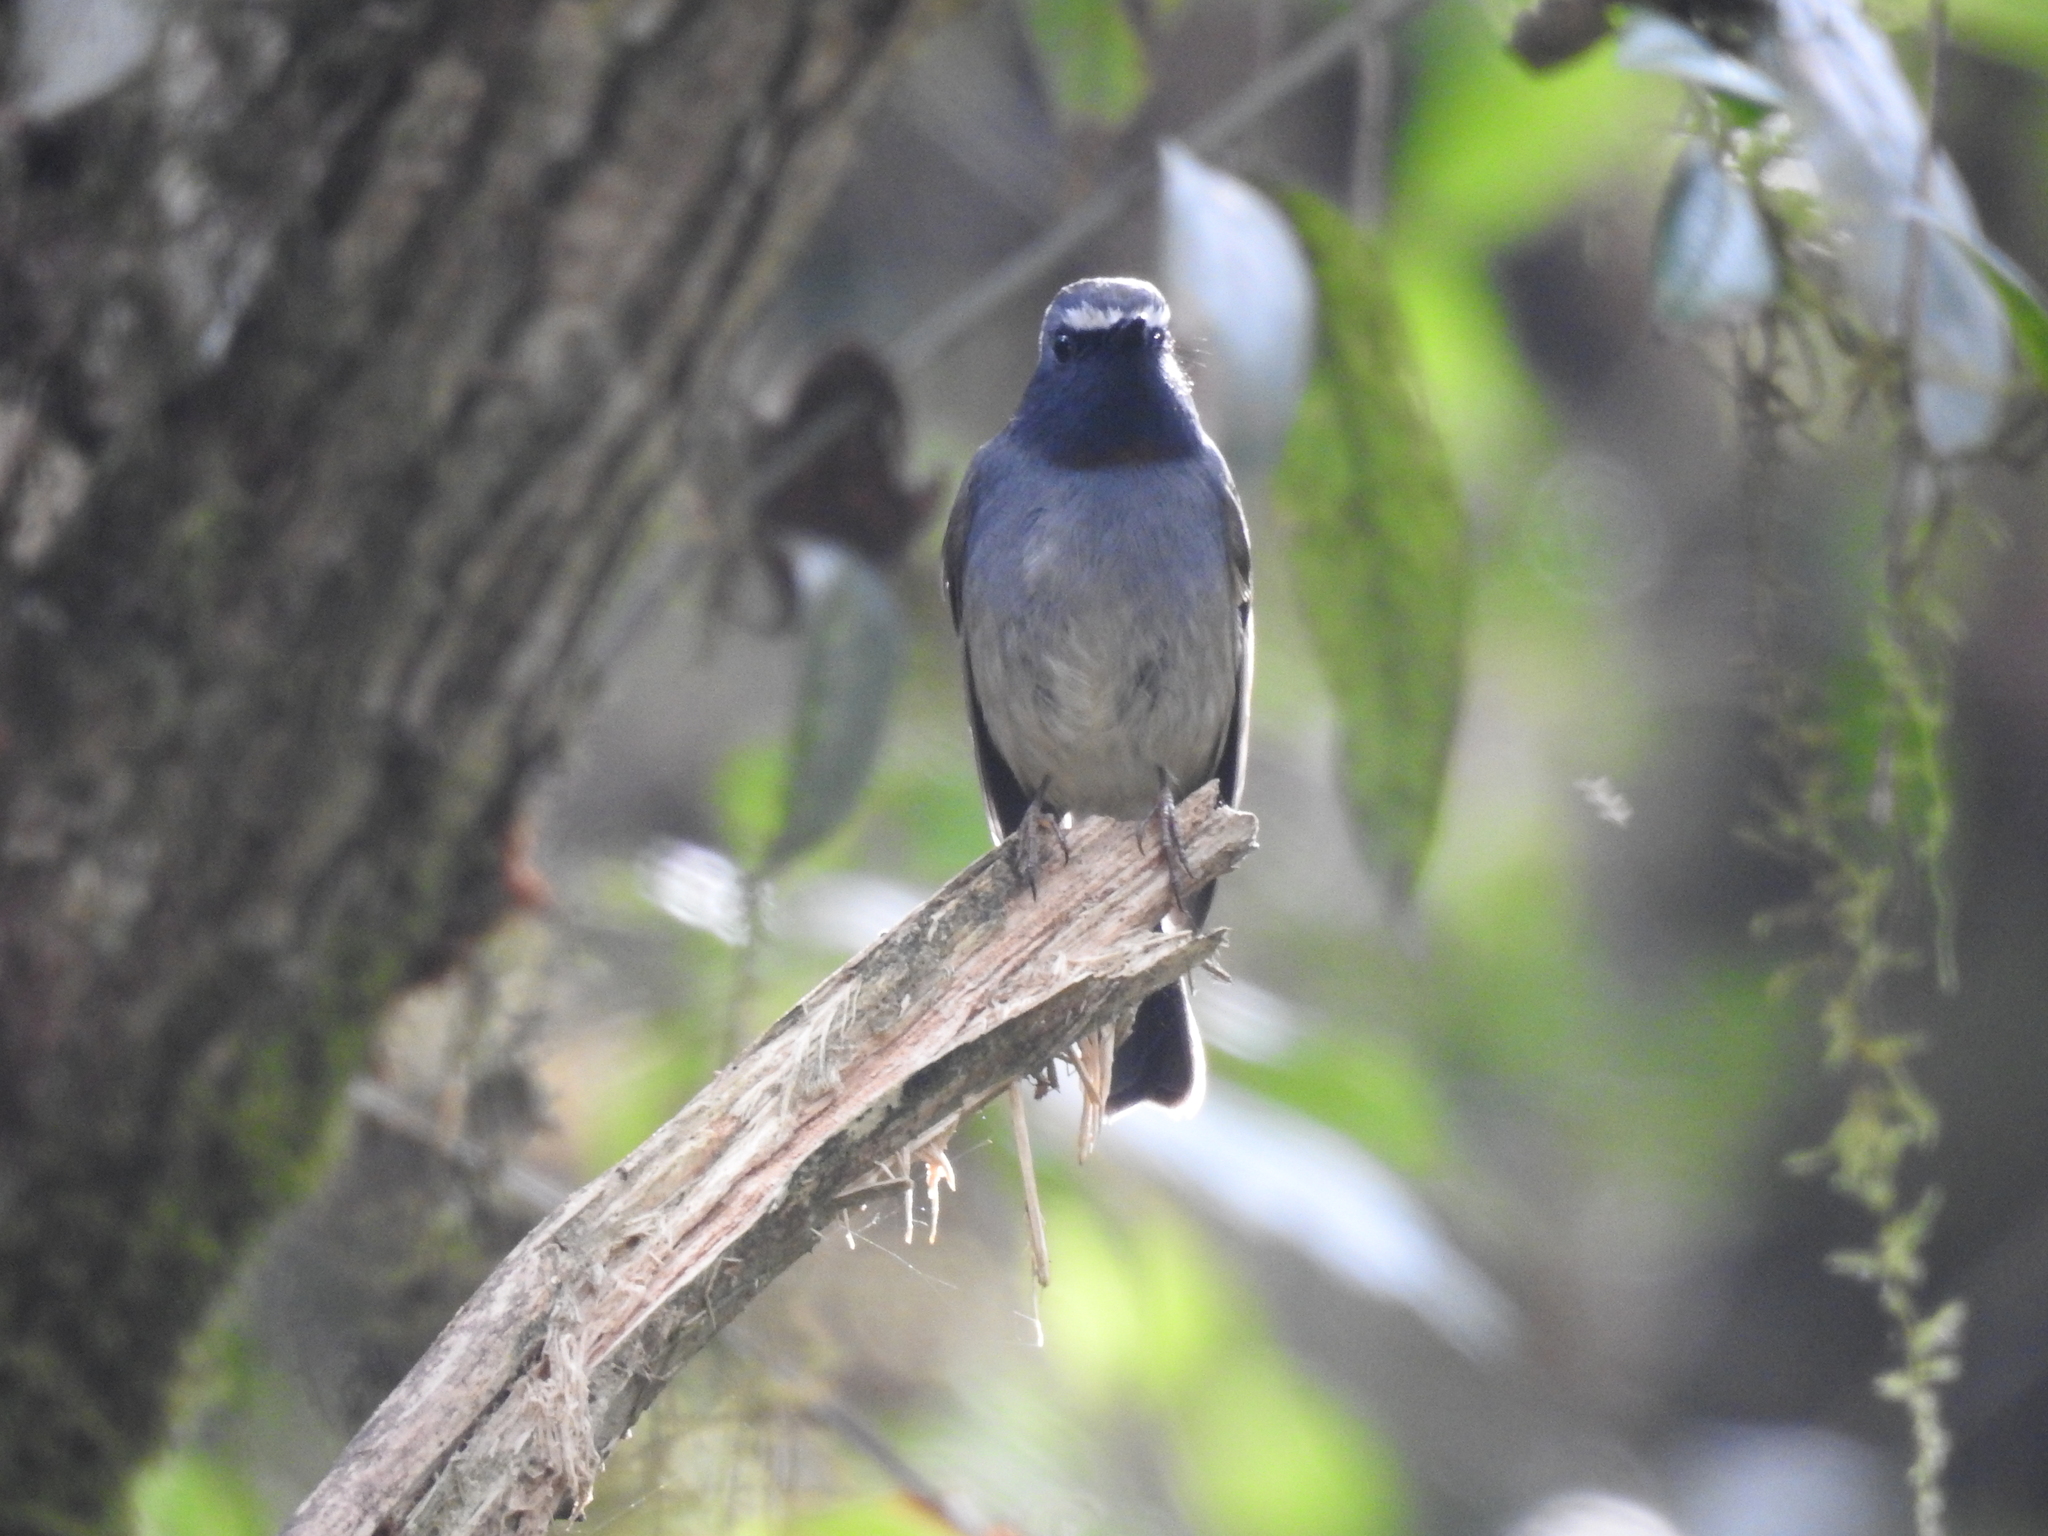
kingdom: Animalia
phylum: Chordata
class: Aves
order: Passeriformes
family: Muscicapidae
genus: Ficedula
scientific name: Ficedula strophiata
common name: Rufous-gorgeted flycatcher
